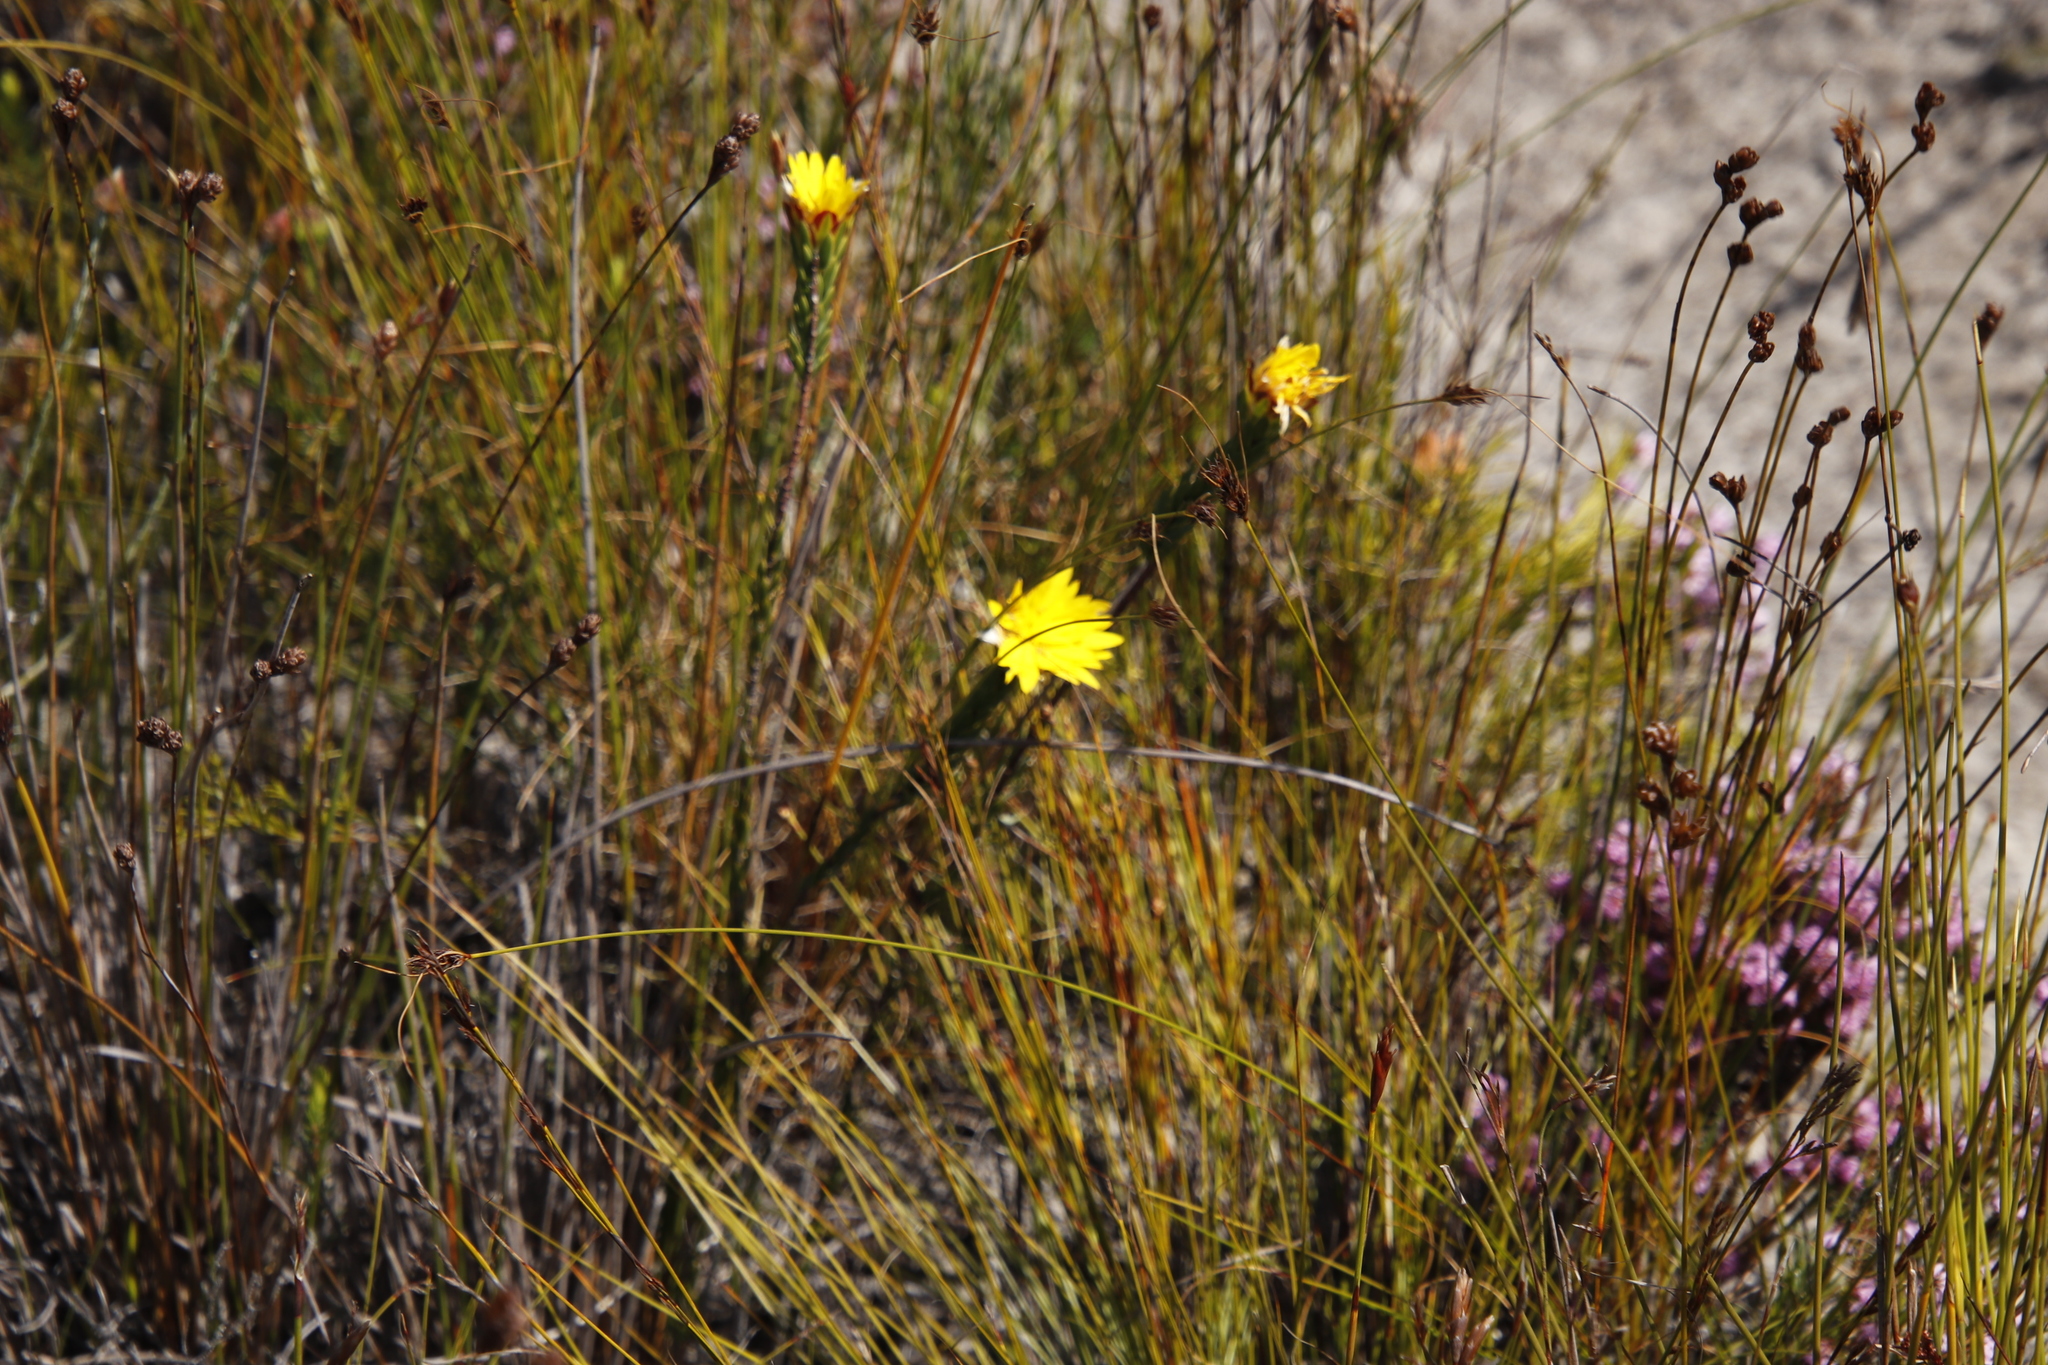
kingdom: Plantae
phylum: Tracheophyta
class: Magnoliopsida
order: Malvales
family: Thymelaeaceae
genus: Lachnaea
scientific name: Lachnaea aurea
